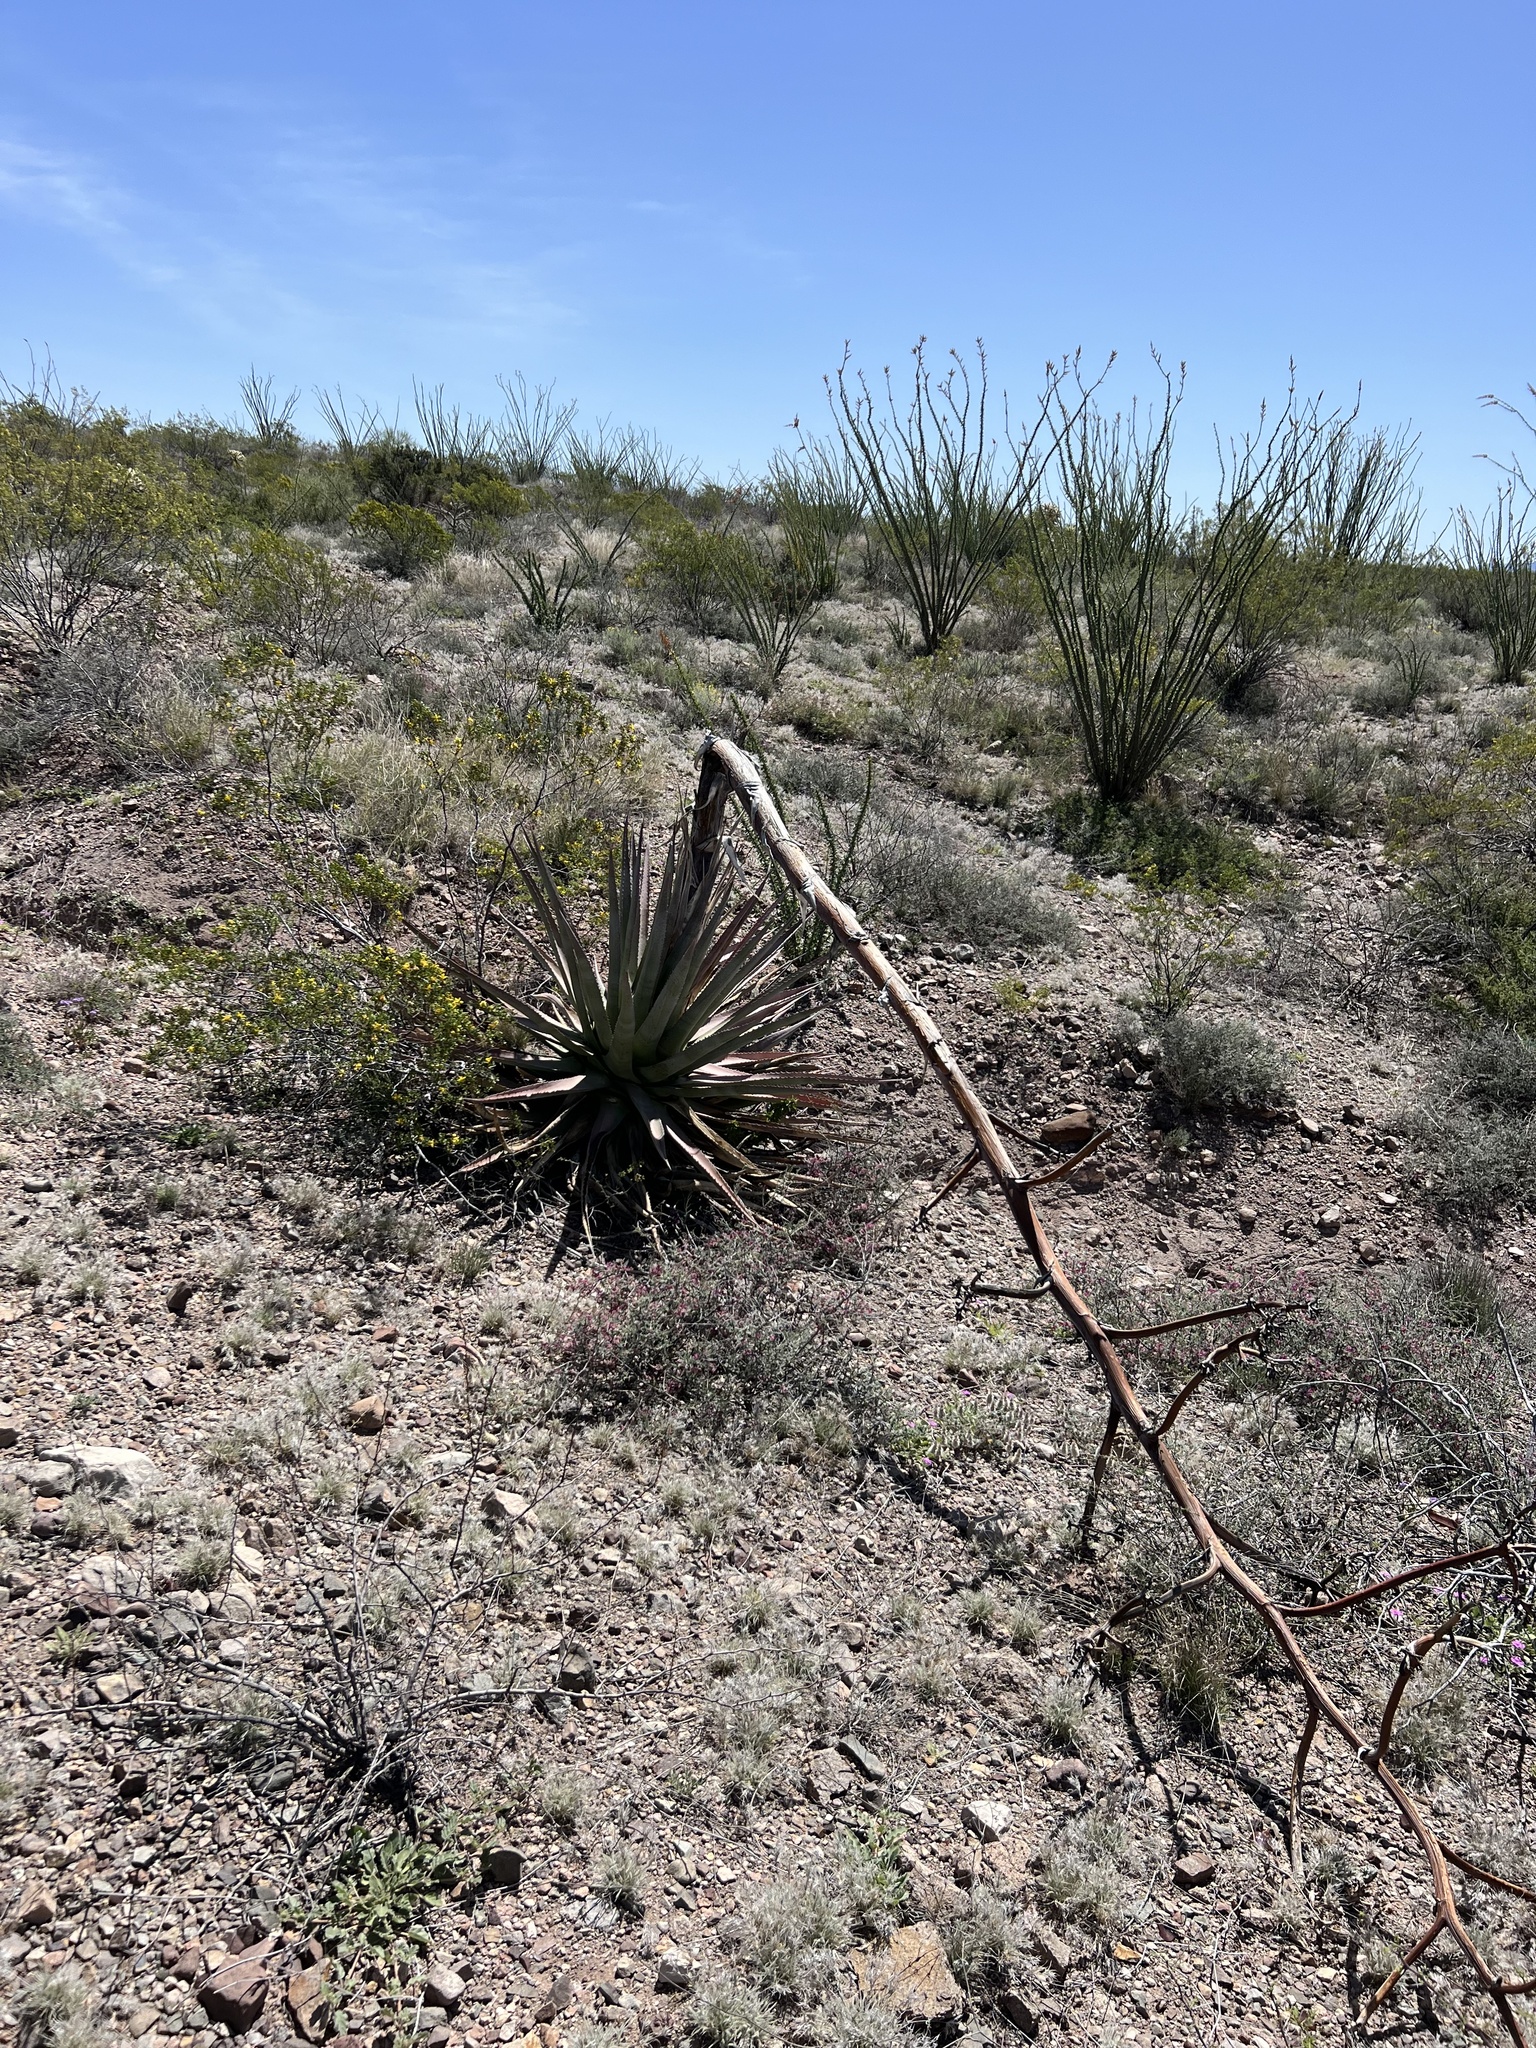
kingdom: Plantae
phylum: Tracheophyta
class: Liliopsida
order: Asparagales
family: Asparagaceae
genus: Agave
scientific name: Agave palmeri
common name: Palmer agave
